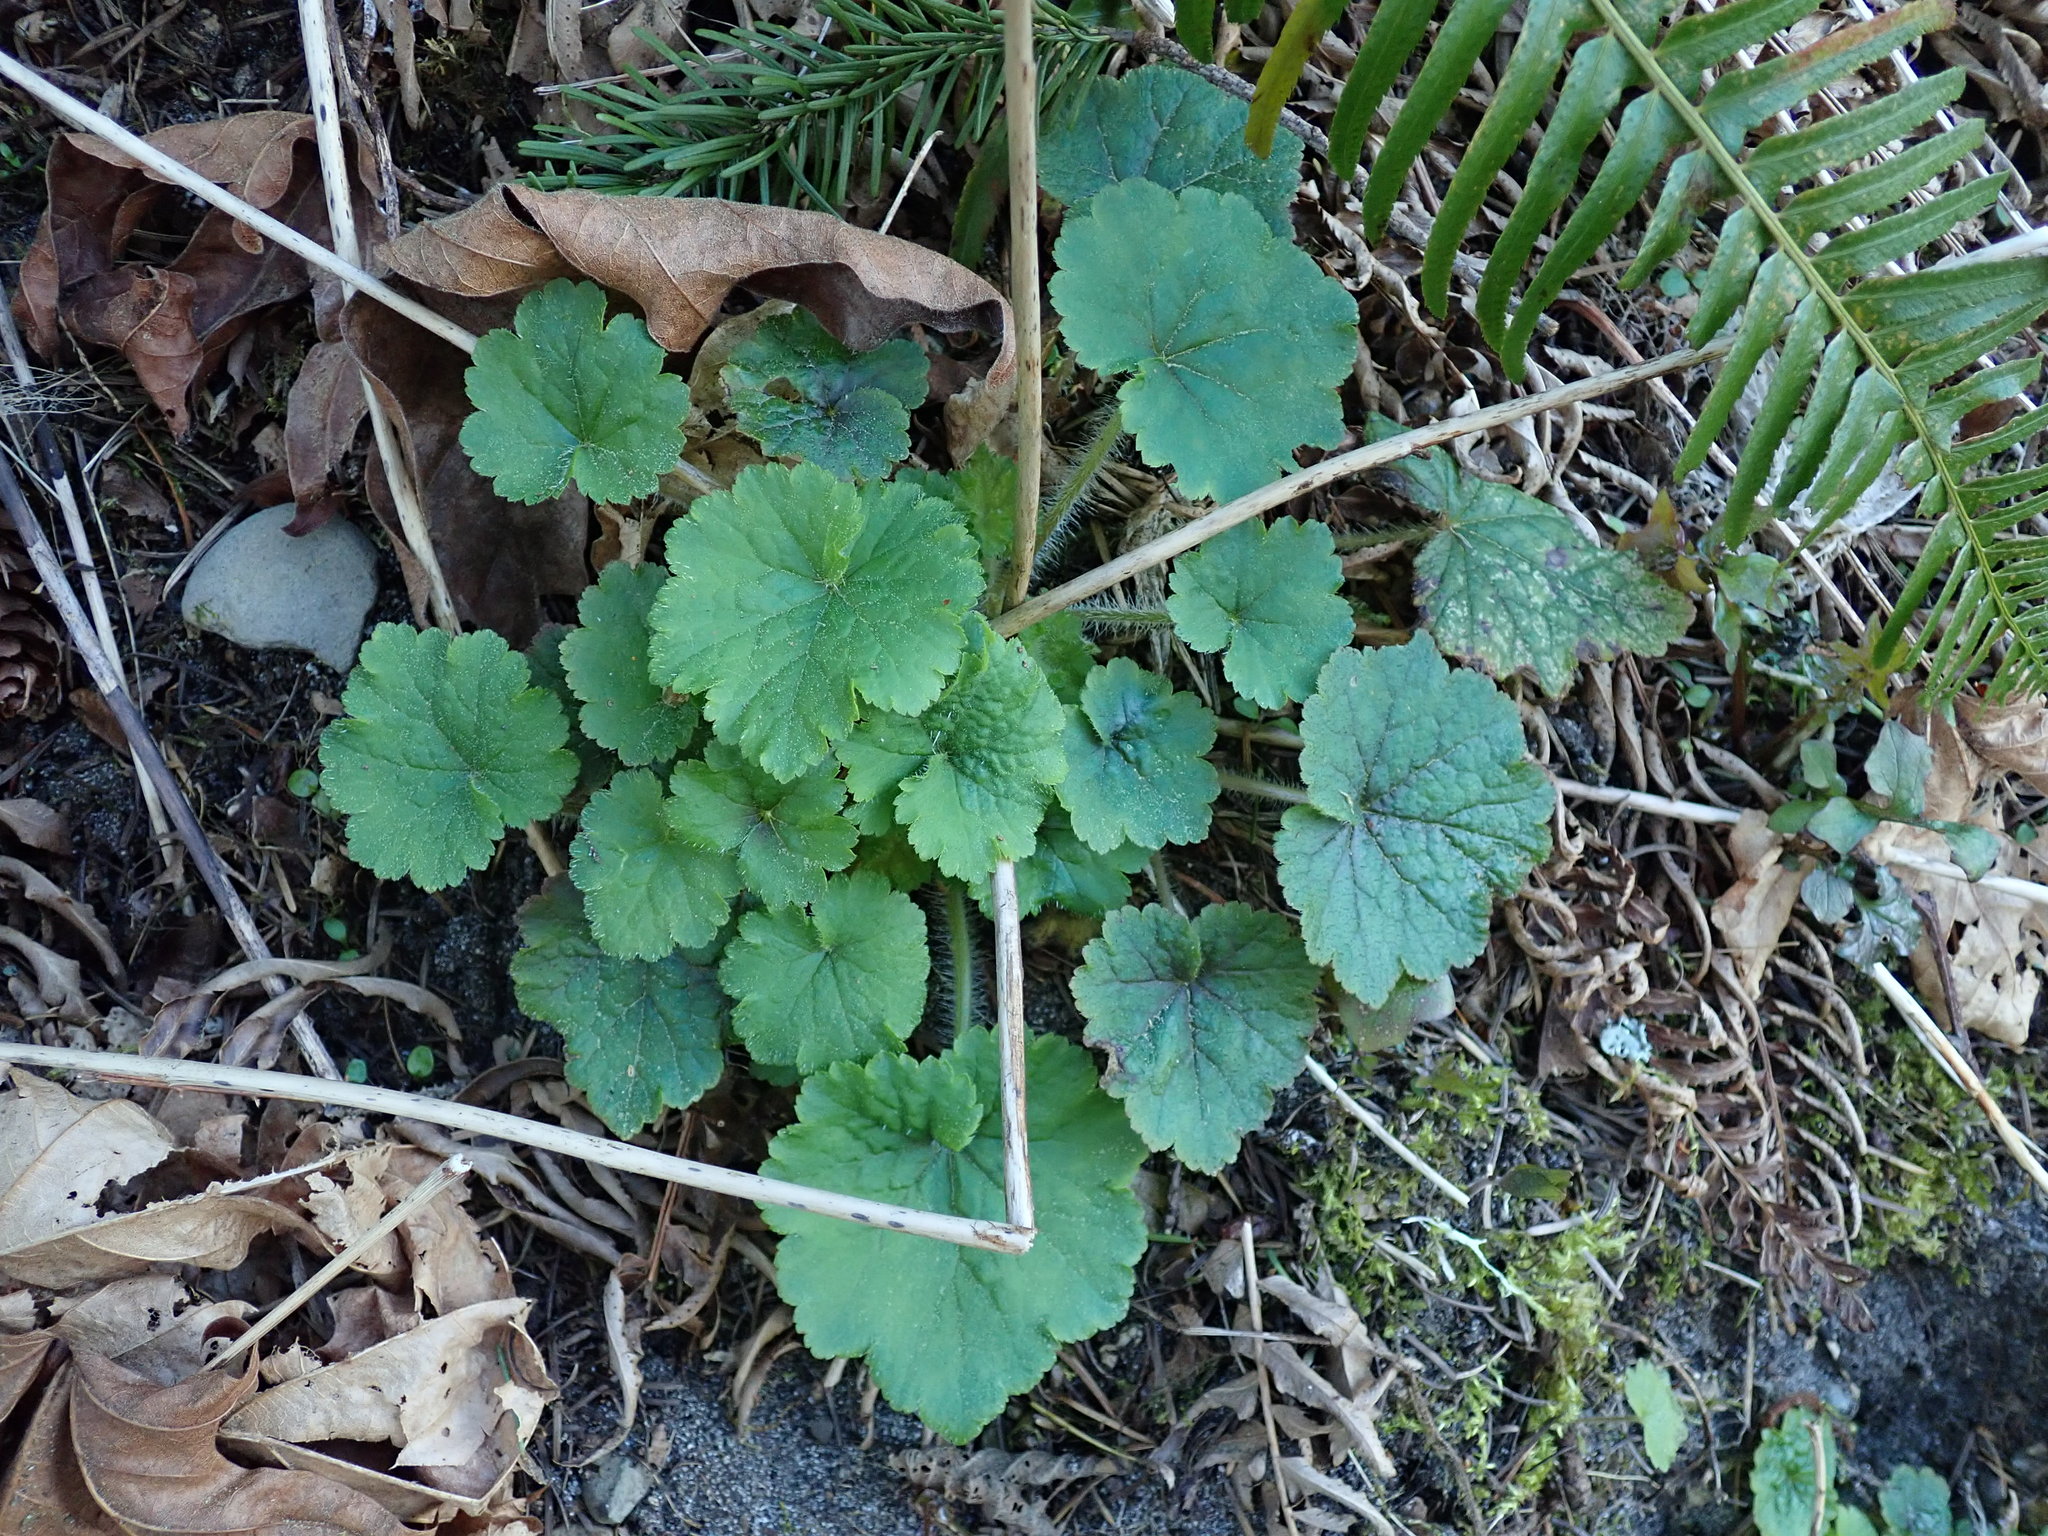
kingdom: Plantae
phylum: Tracheophyta
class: Magnoliopsida
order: Saxifragales
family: Saxifragaceae
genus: Tellima
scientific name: Tellima grandiflora
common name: Fringecups
